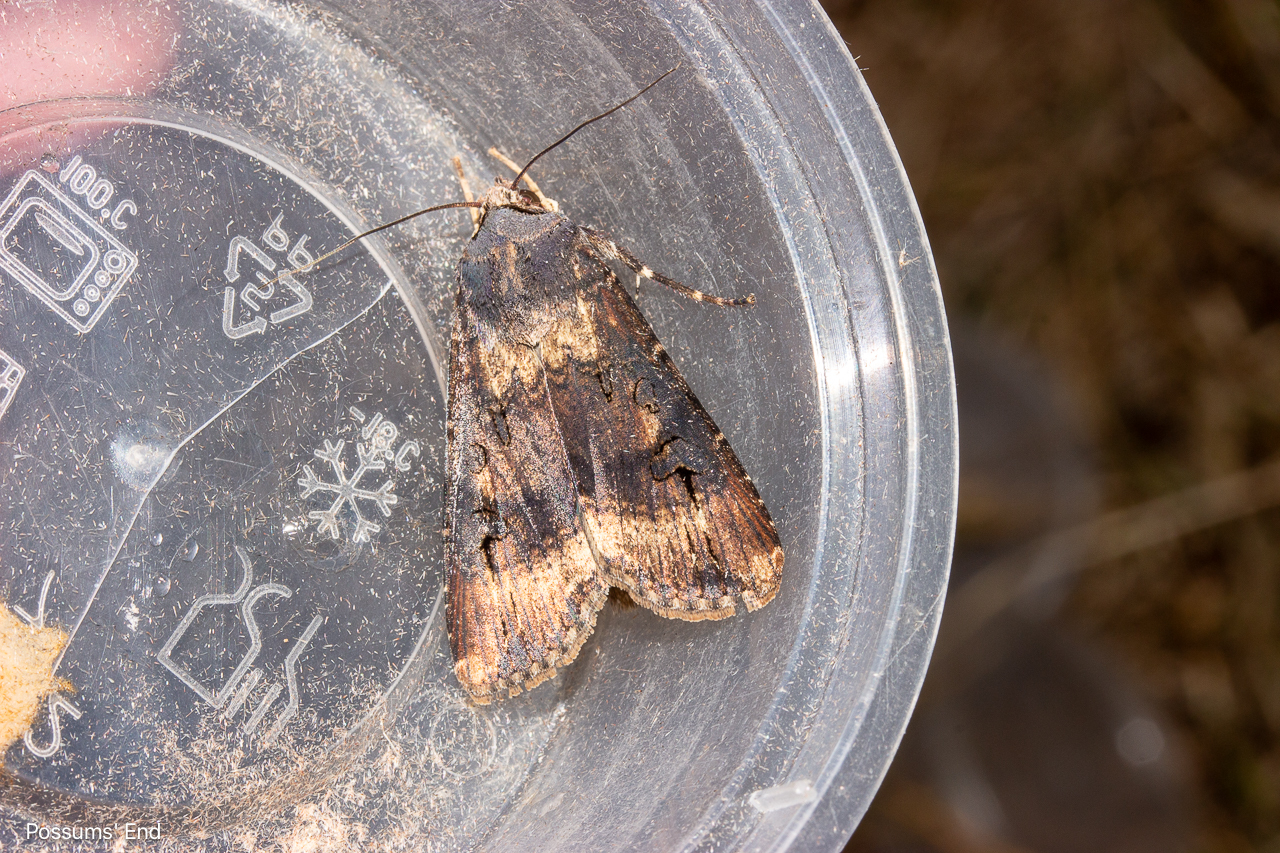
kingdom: Animalia
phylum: Arthropoda
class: Insecta
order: Lepidoptera
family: Noctuidae
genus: Agrotis
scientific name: Agrotis ipsilon
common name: Dark sword-grass
